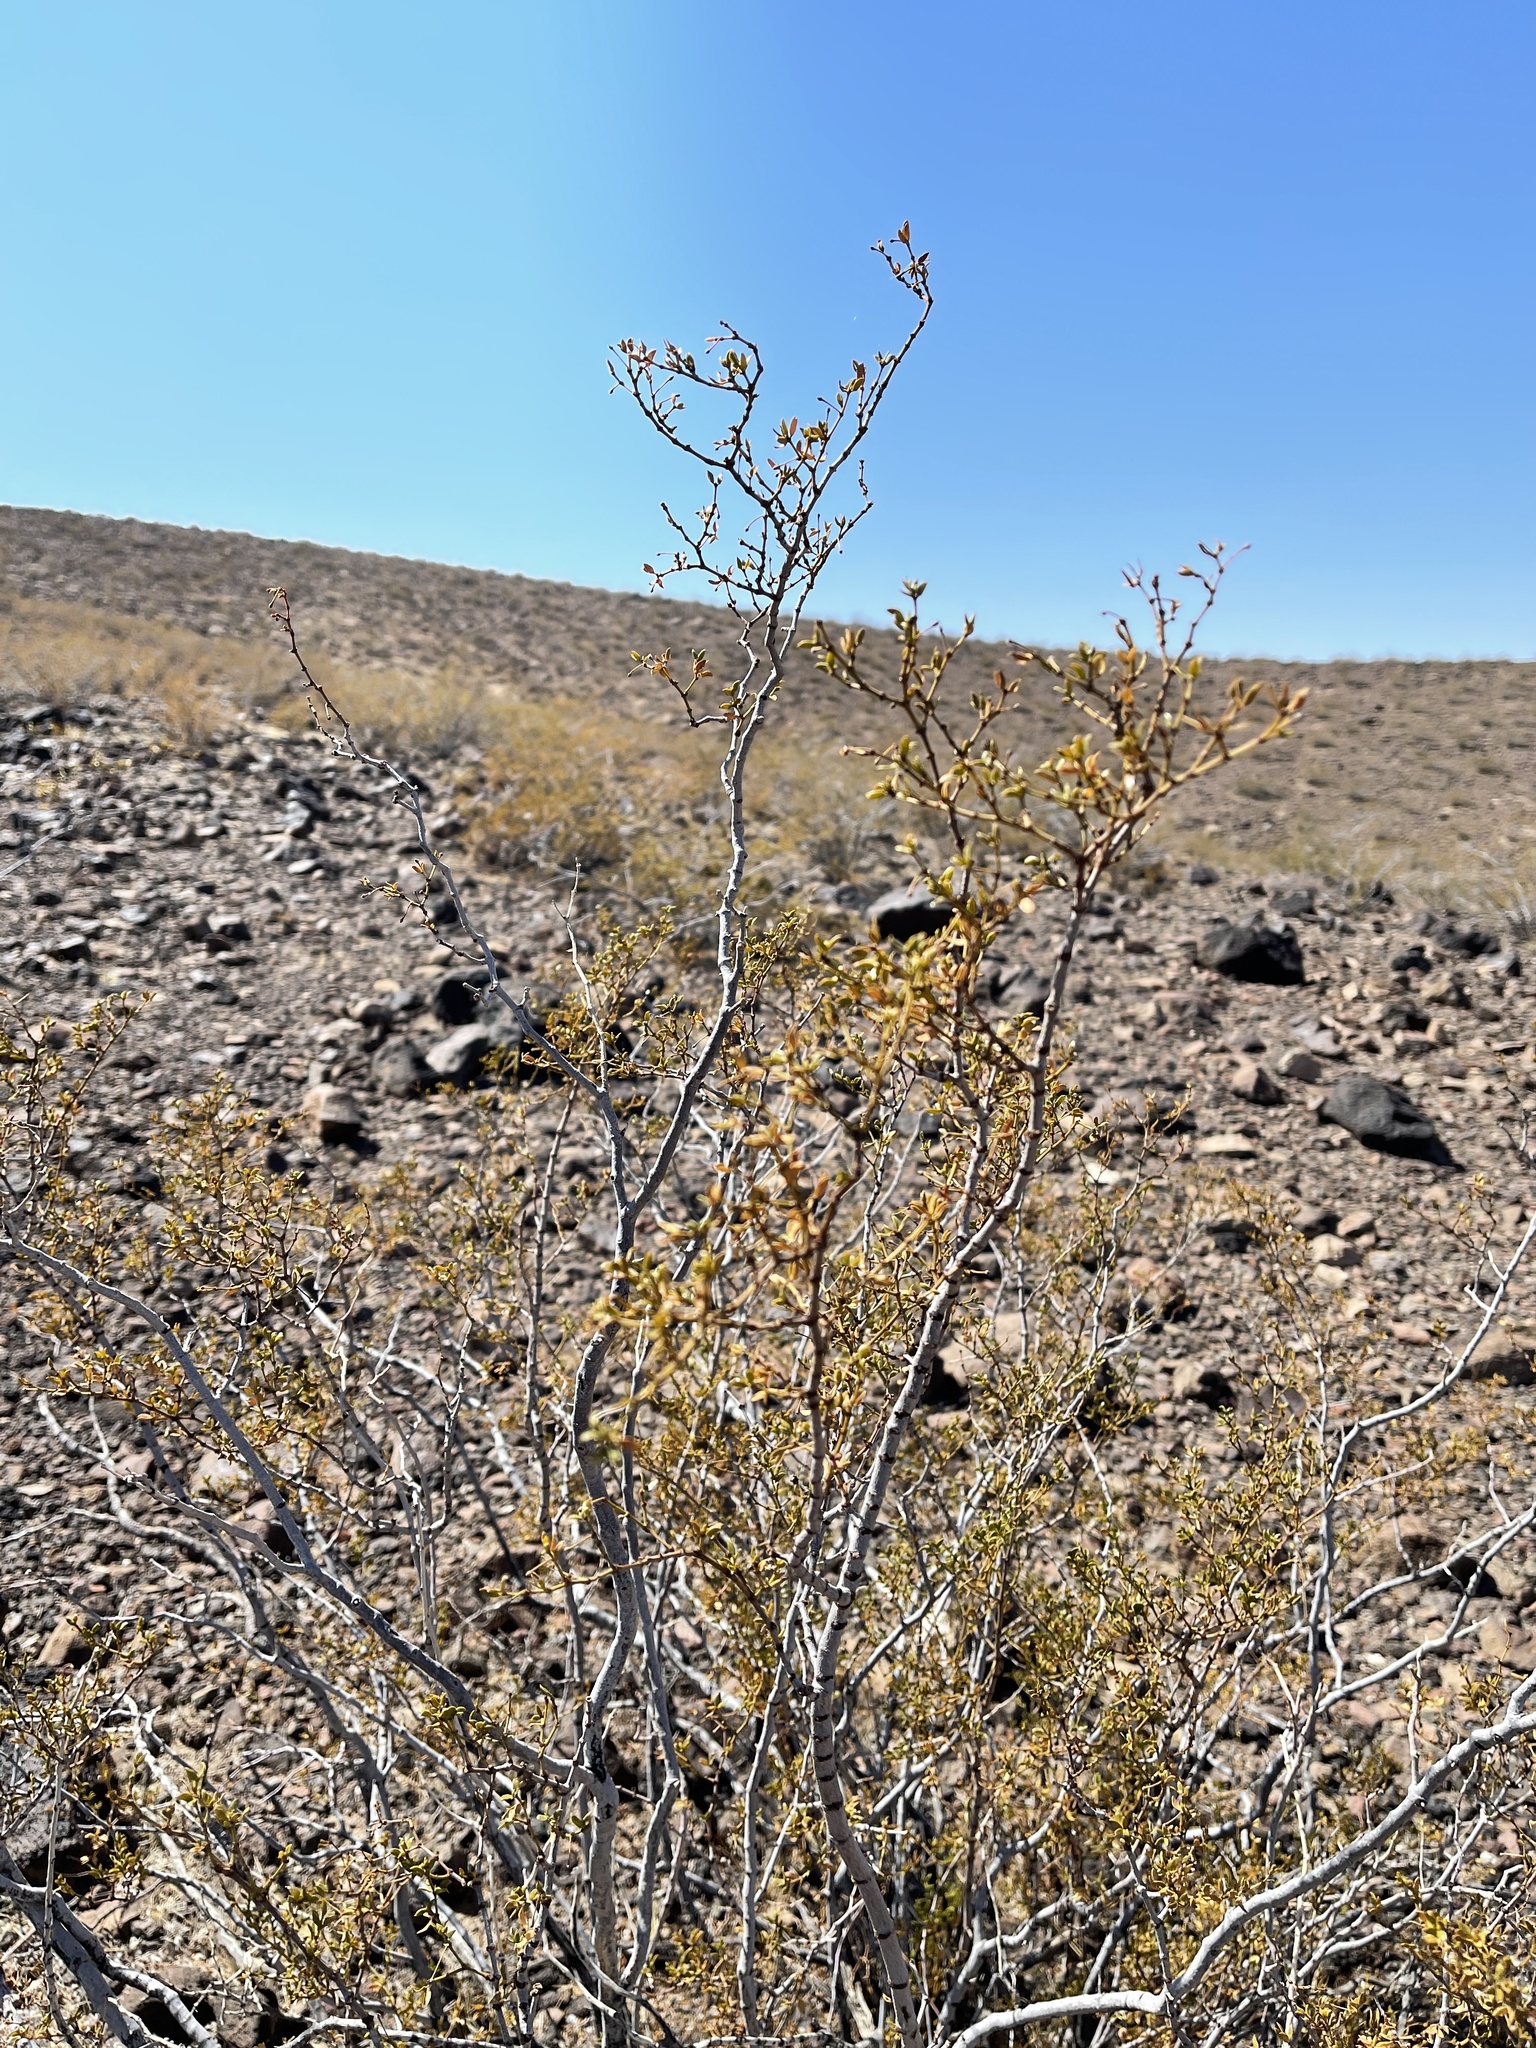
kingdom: Plantae
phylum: Tracheophyta
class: Magnoliopsida
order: Zygophyllales
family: Zygophyllaceae
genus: Larrea
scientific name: Larrea tridentata
